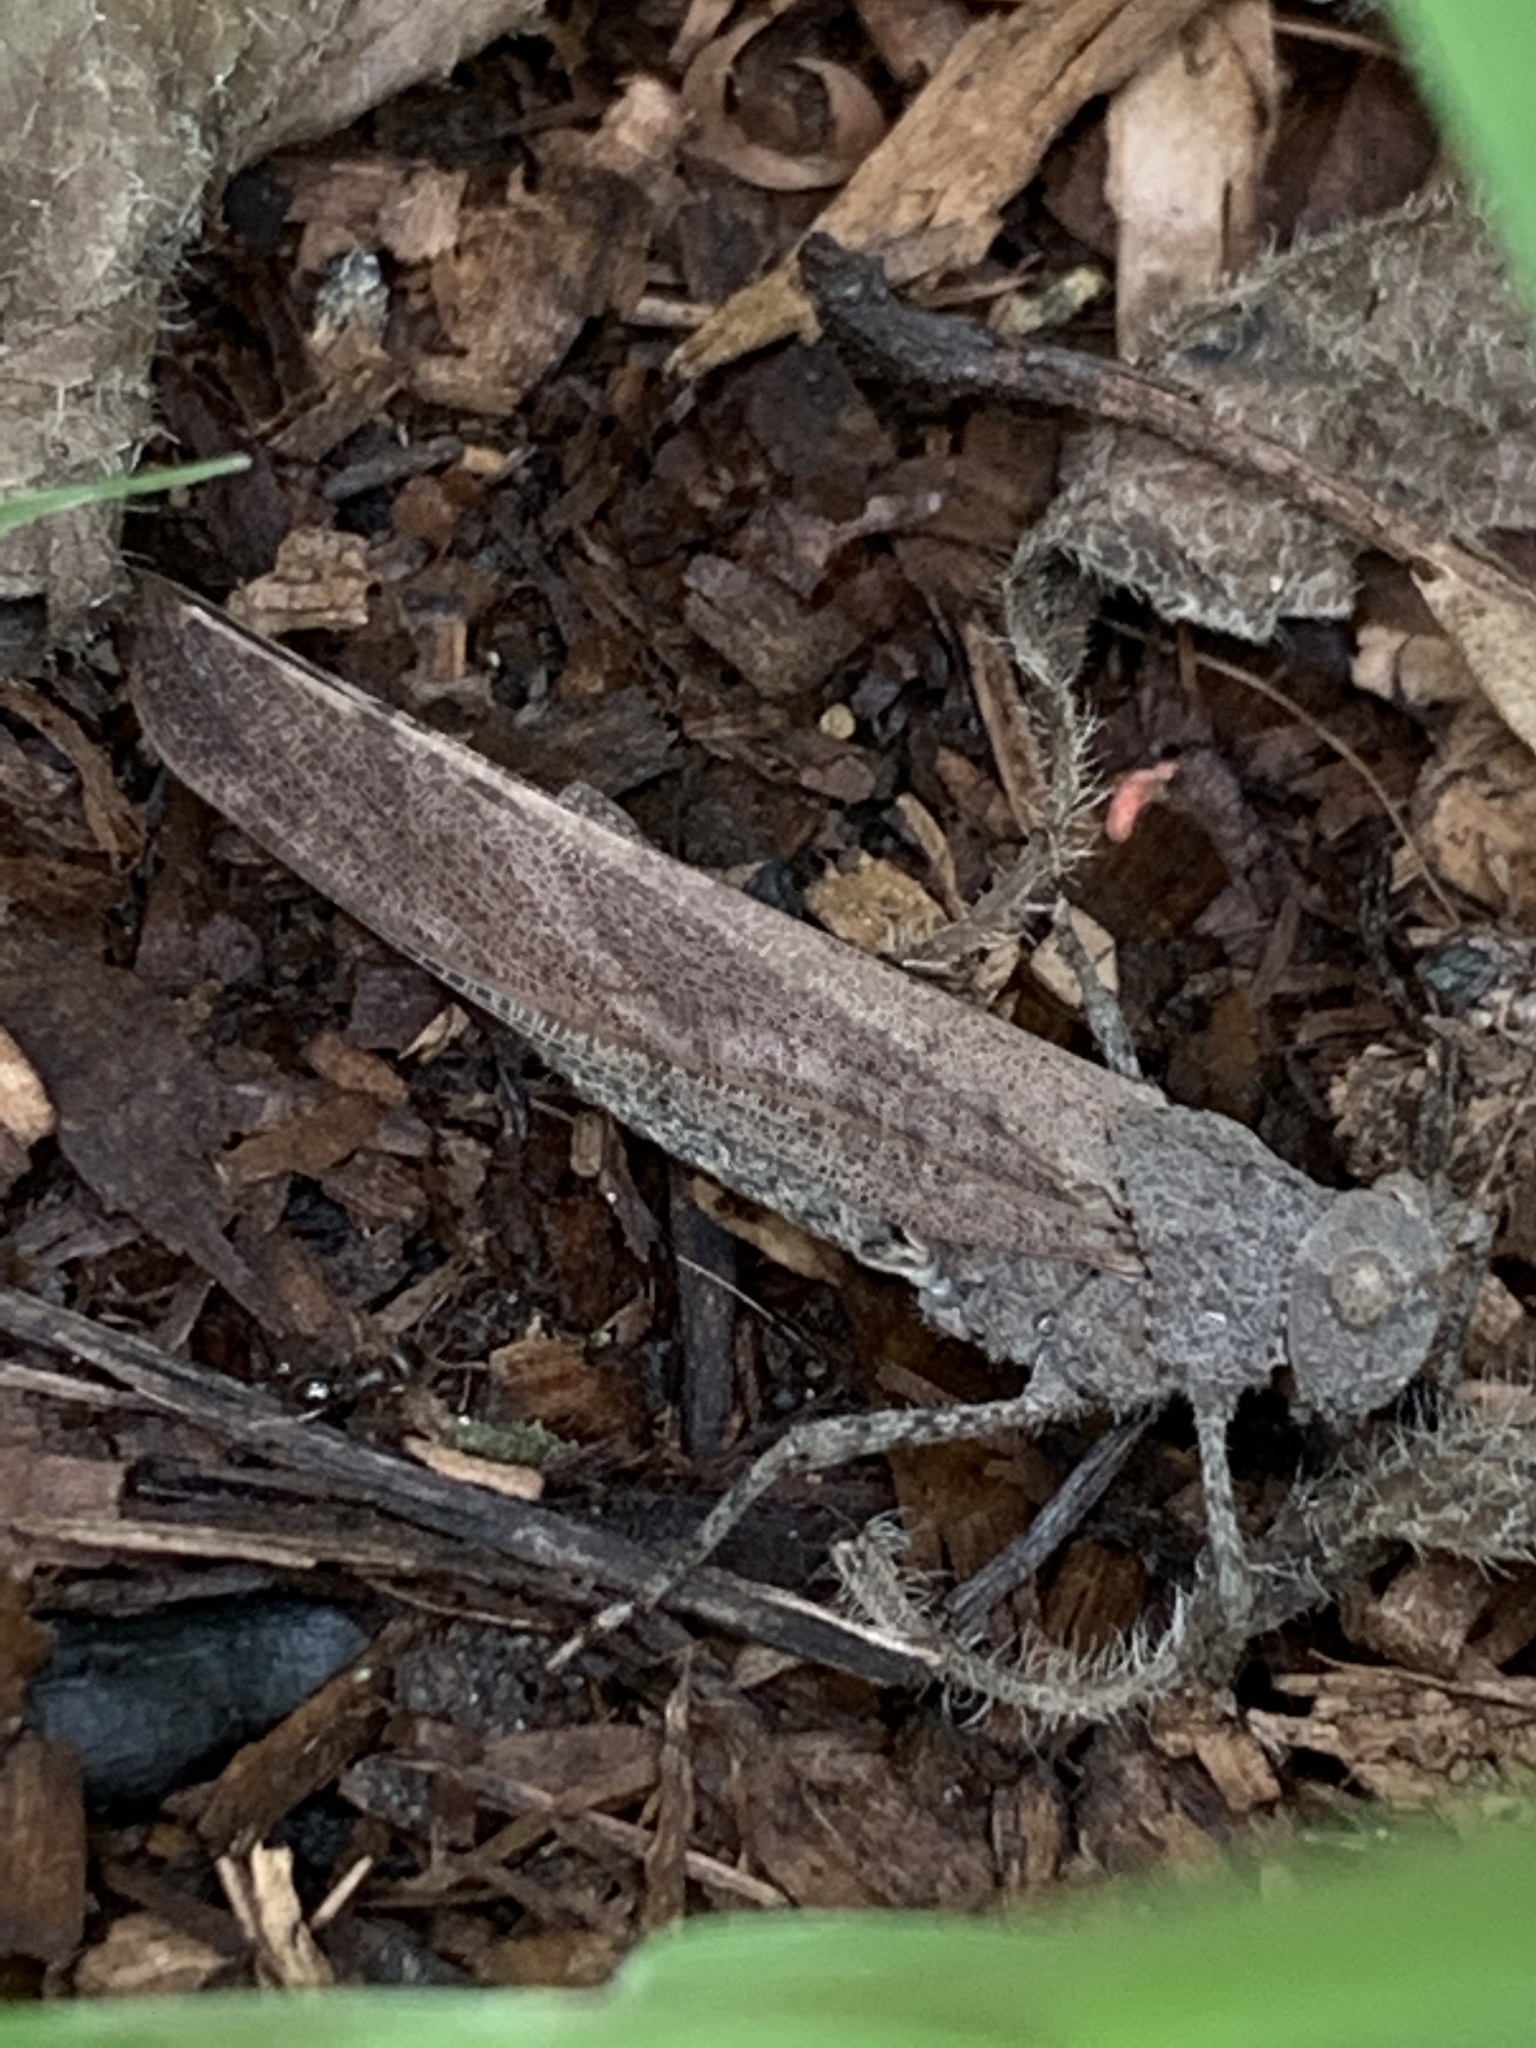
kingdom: Animalia
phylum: Arthropoda
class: Insecta
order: Orthoptera
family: Acrididae
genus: Dissosteira
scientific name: Dissosteira carolina
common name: Carolina grasshopper
